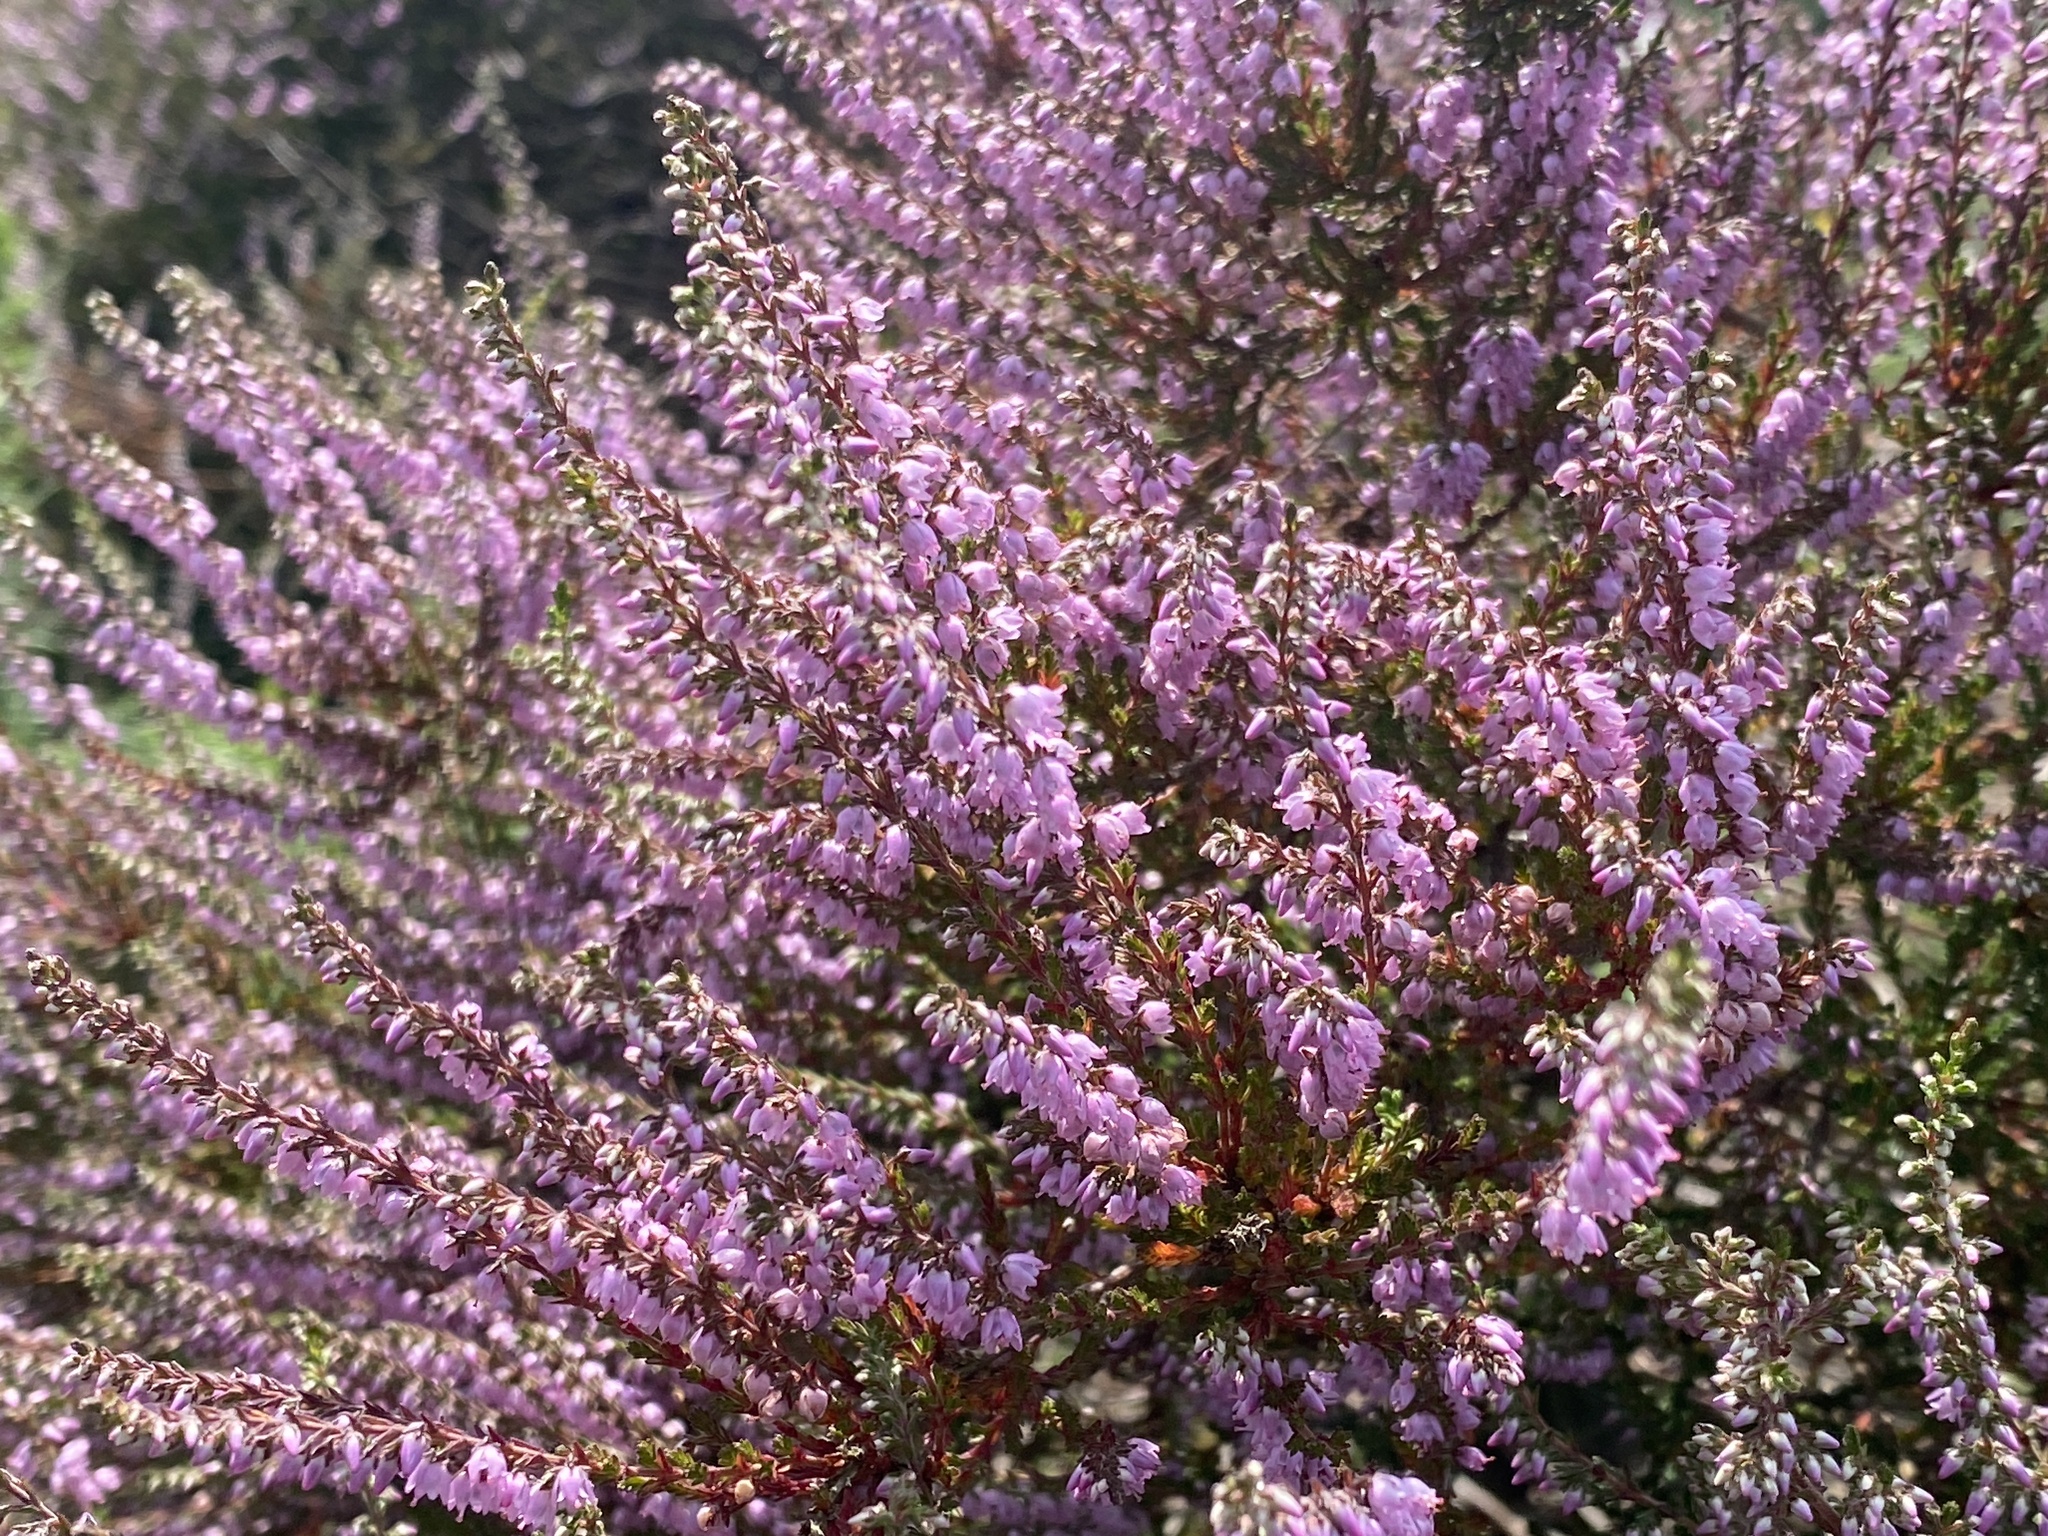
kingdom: Plantae
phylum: Tracheophyta
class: Magnoliopsida
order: Ericales
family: Ericaceae
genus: Calluna
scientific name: Calluna vulgaris
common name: Heather
